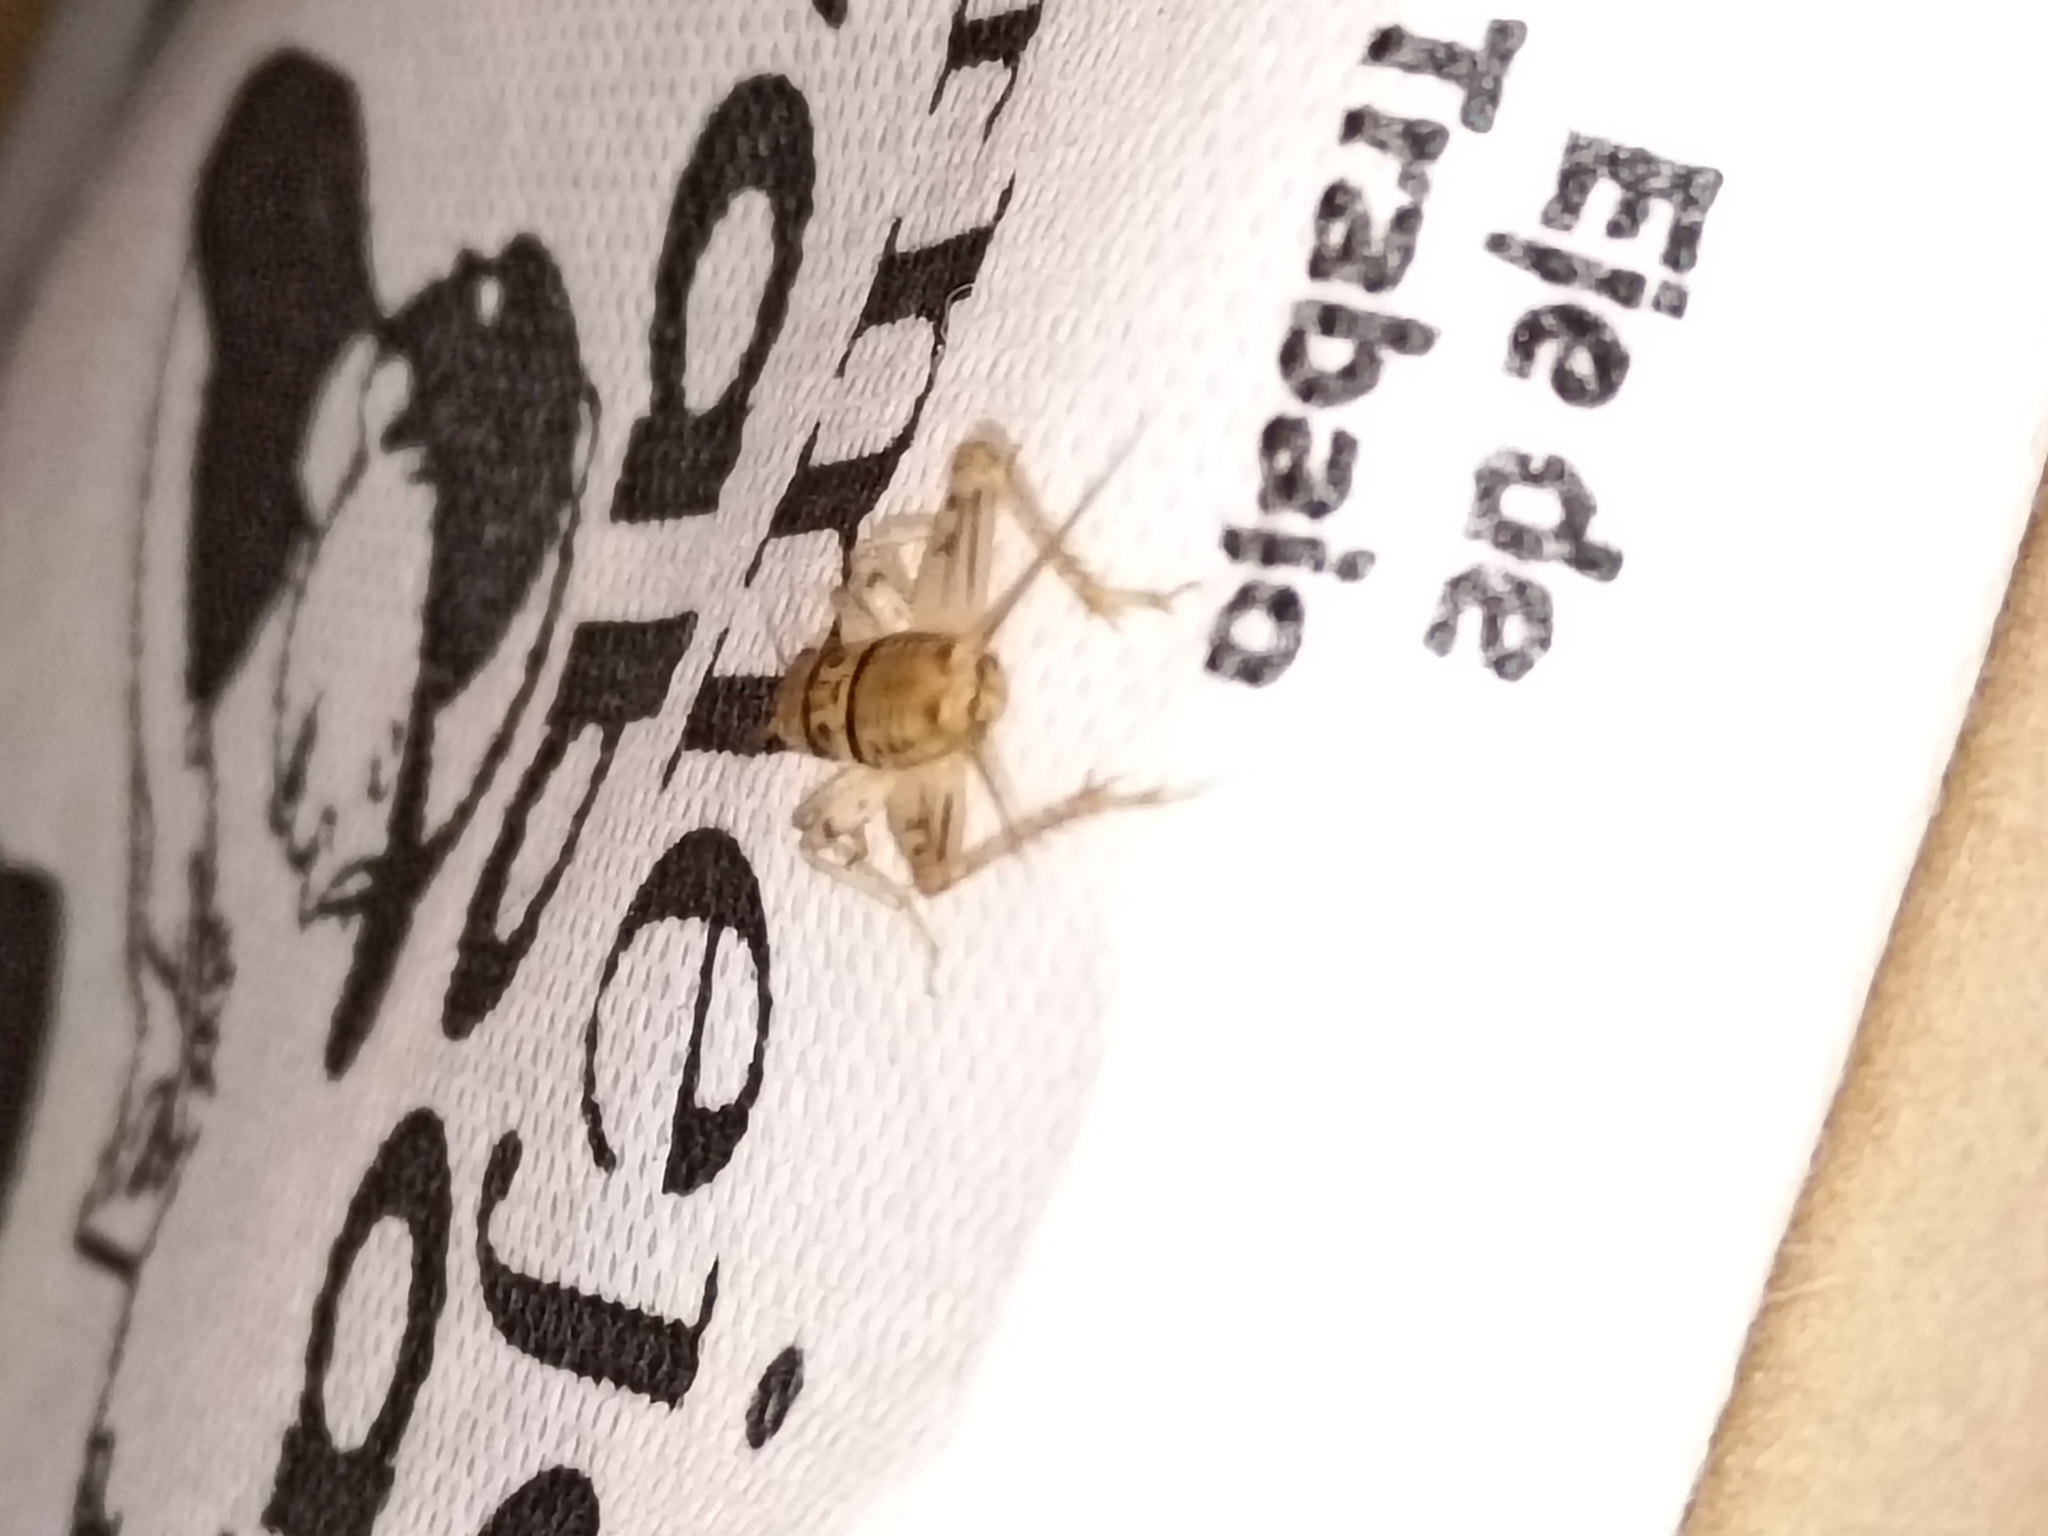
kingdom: Animalia
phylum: Arthropoda
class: Insecta
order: Orthoptera
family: Gryllidae
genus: Gryllodes
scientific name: Gryllodes sigillatus
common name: Tropical house cricket
